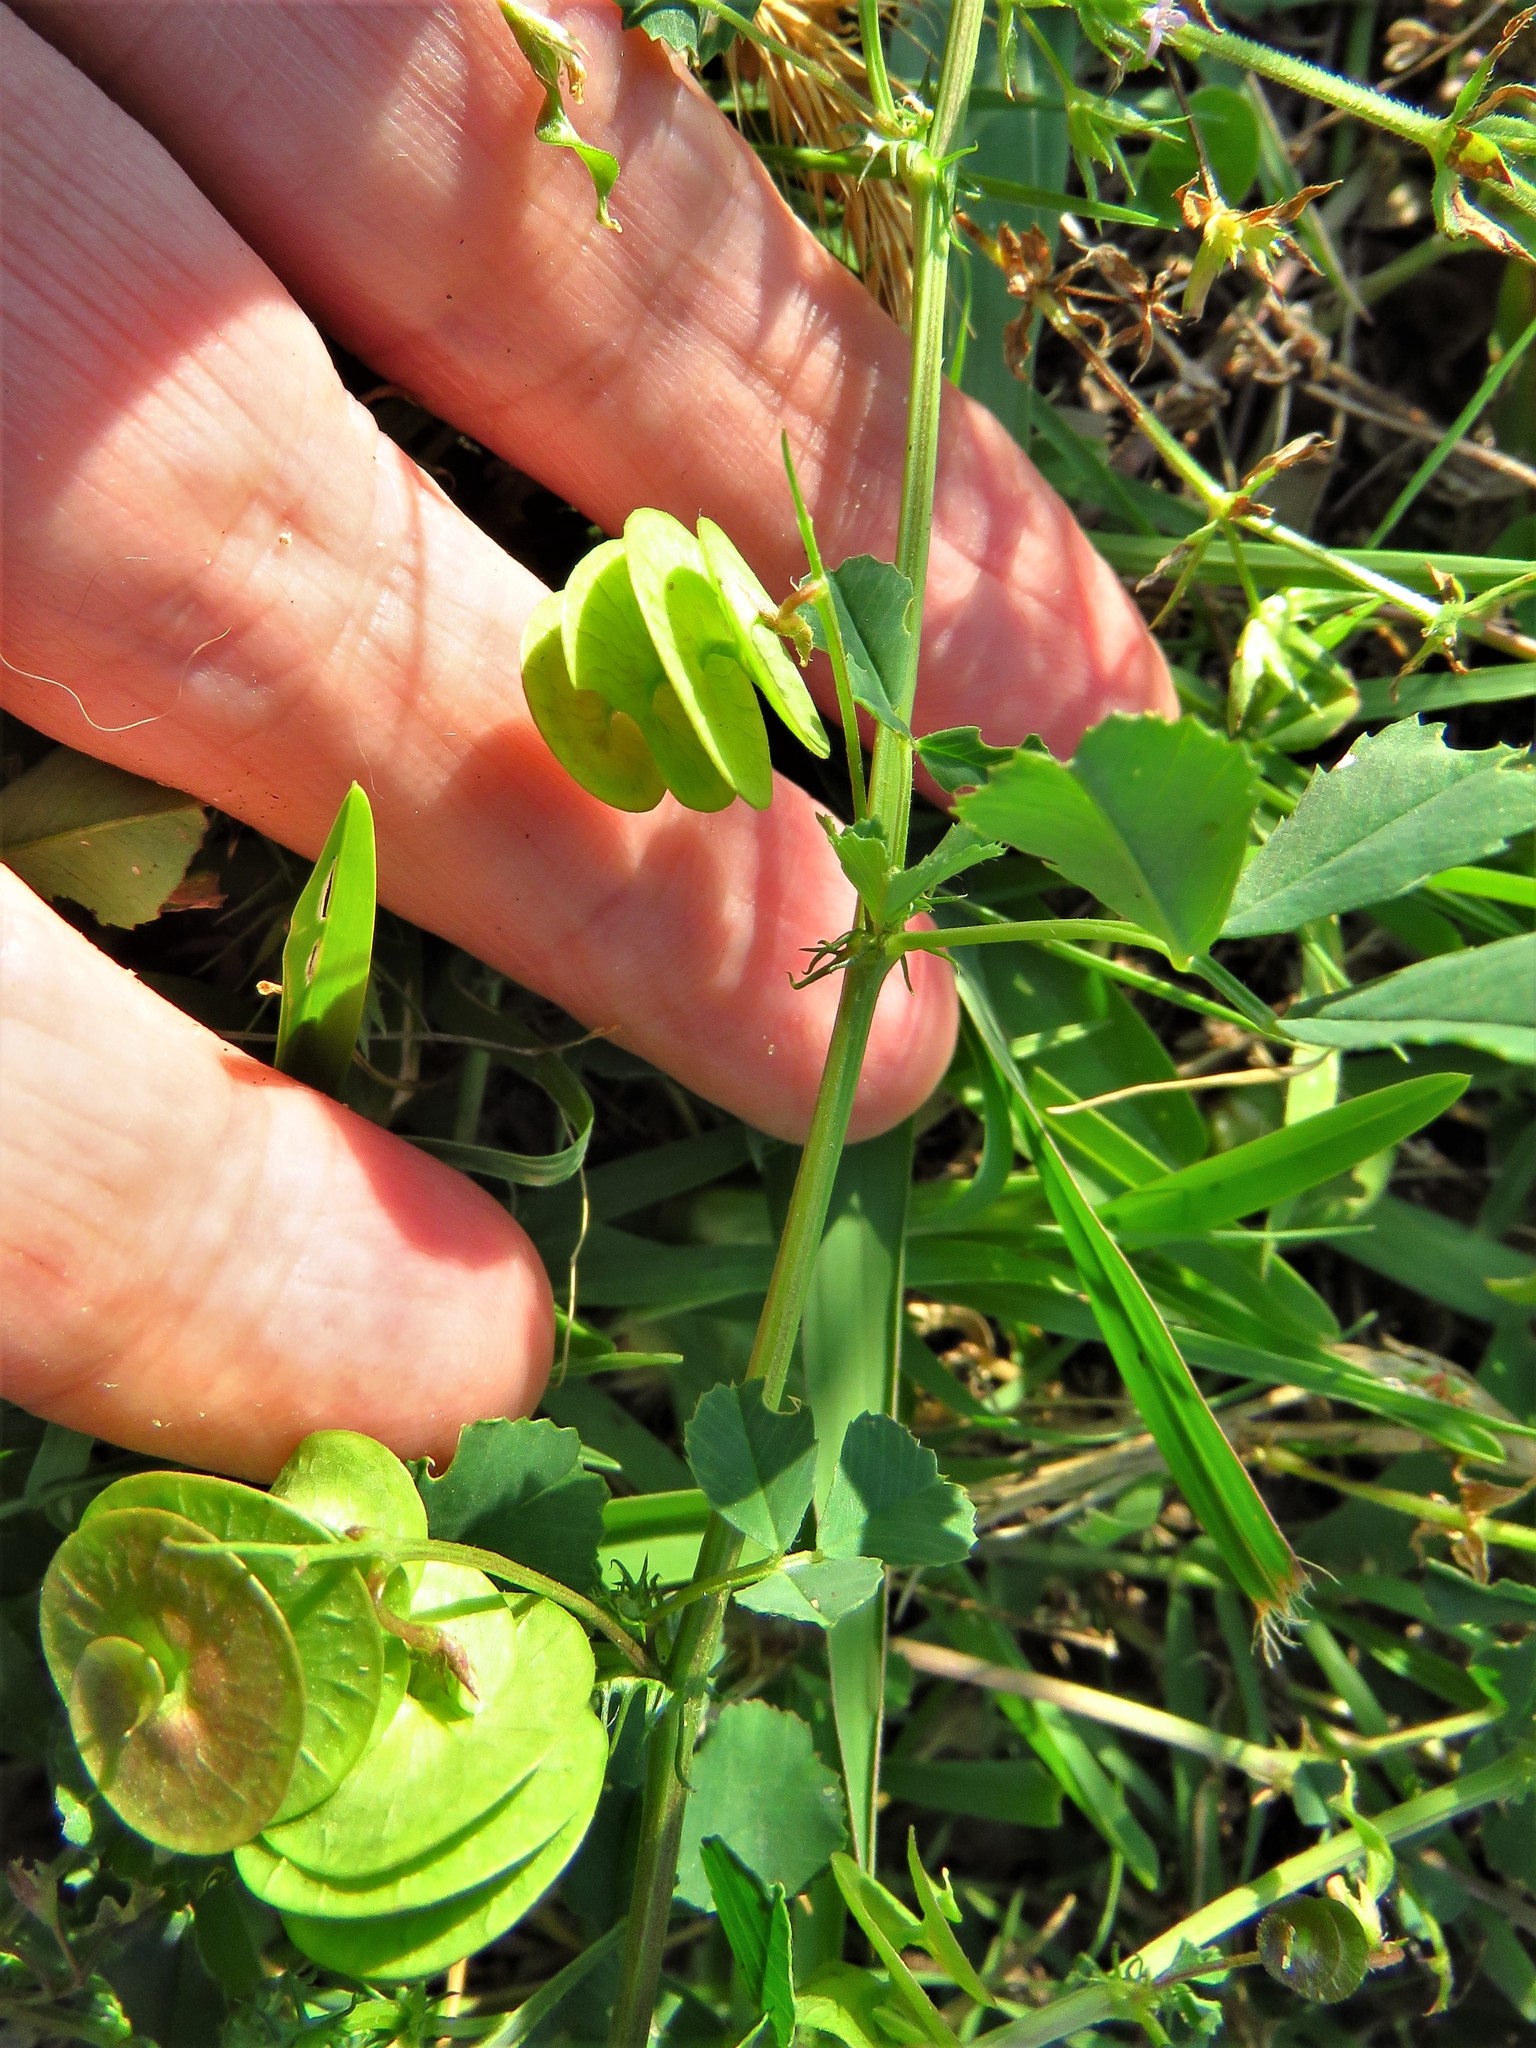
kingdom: Plantae
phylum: Tracheophyta
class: Magnoliopsida
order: Fabales
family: Fabaceae
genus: Medicago
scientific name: Medicago orbicularis
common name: Button medick
